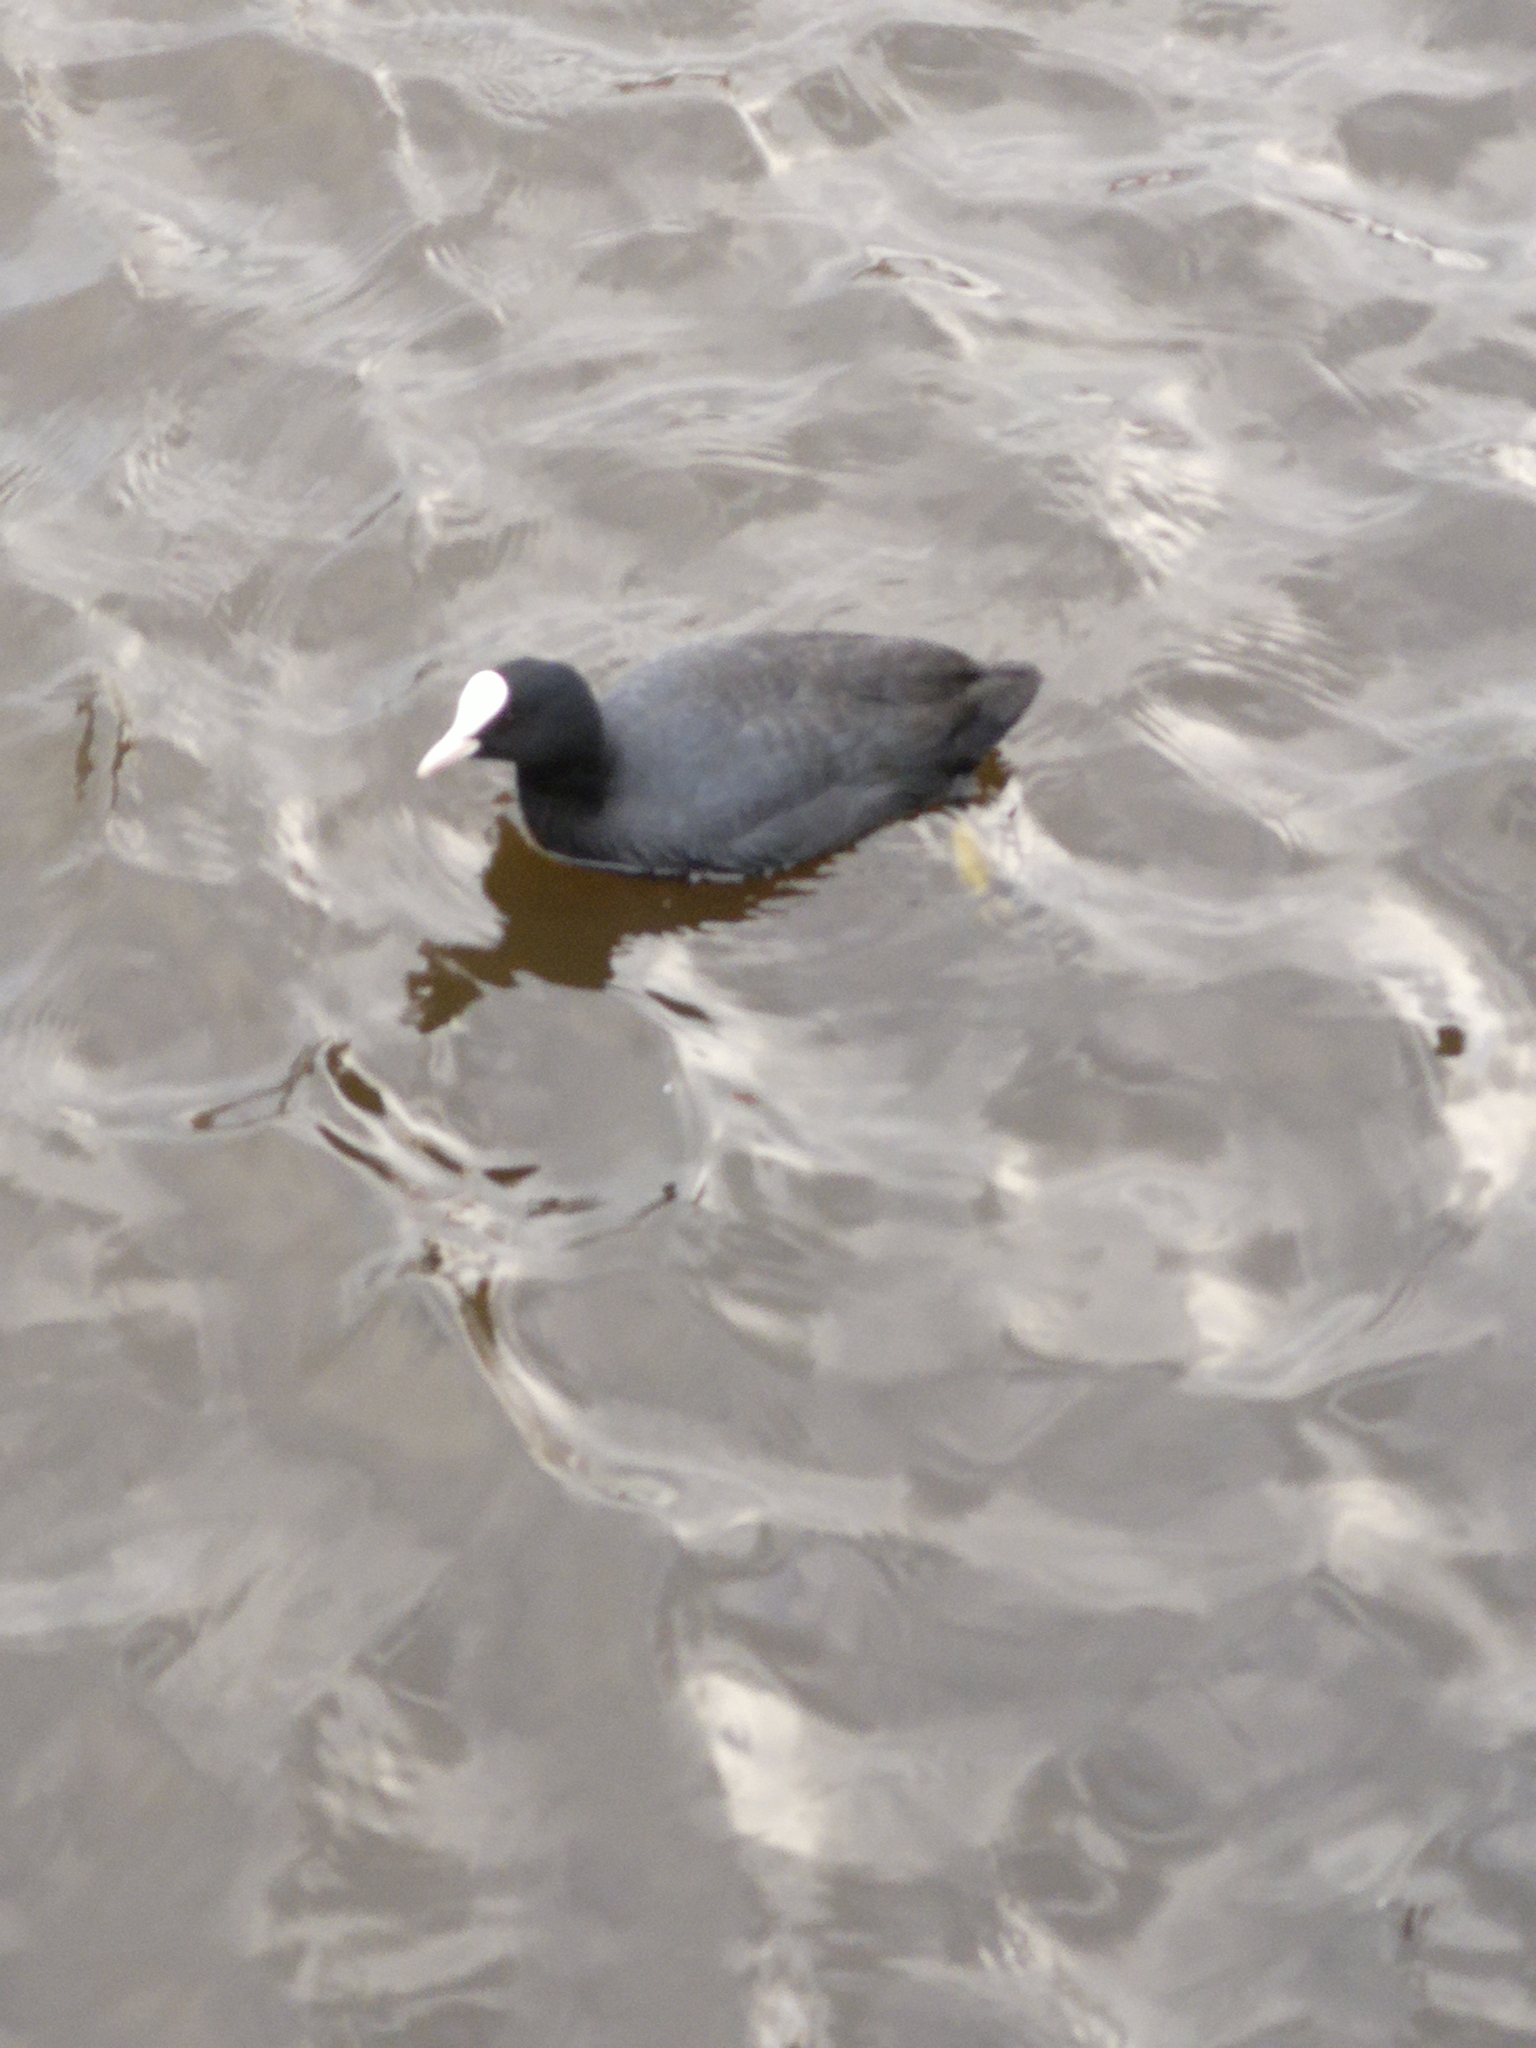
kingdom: Animalia
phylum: Chordata
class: Aves
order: Gruiformes
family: Rallidae
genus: Fulica
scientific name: Fulica atra
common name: Eurasian coot
